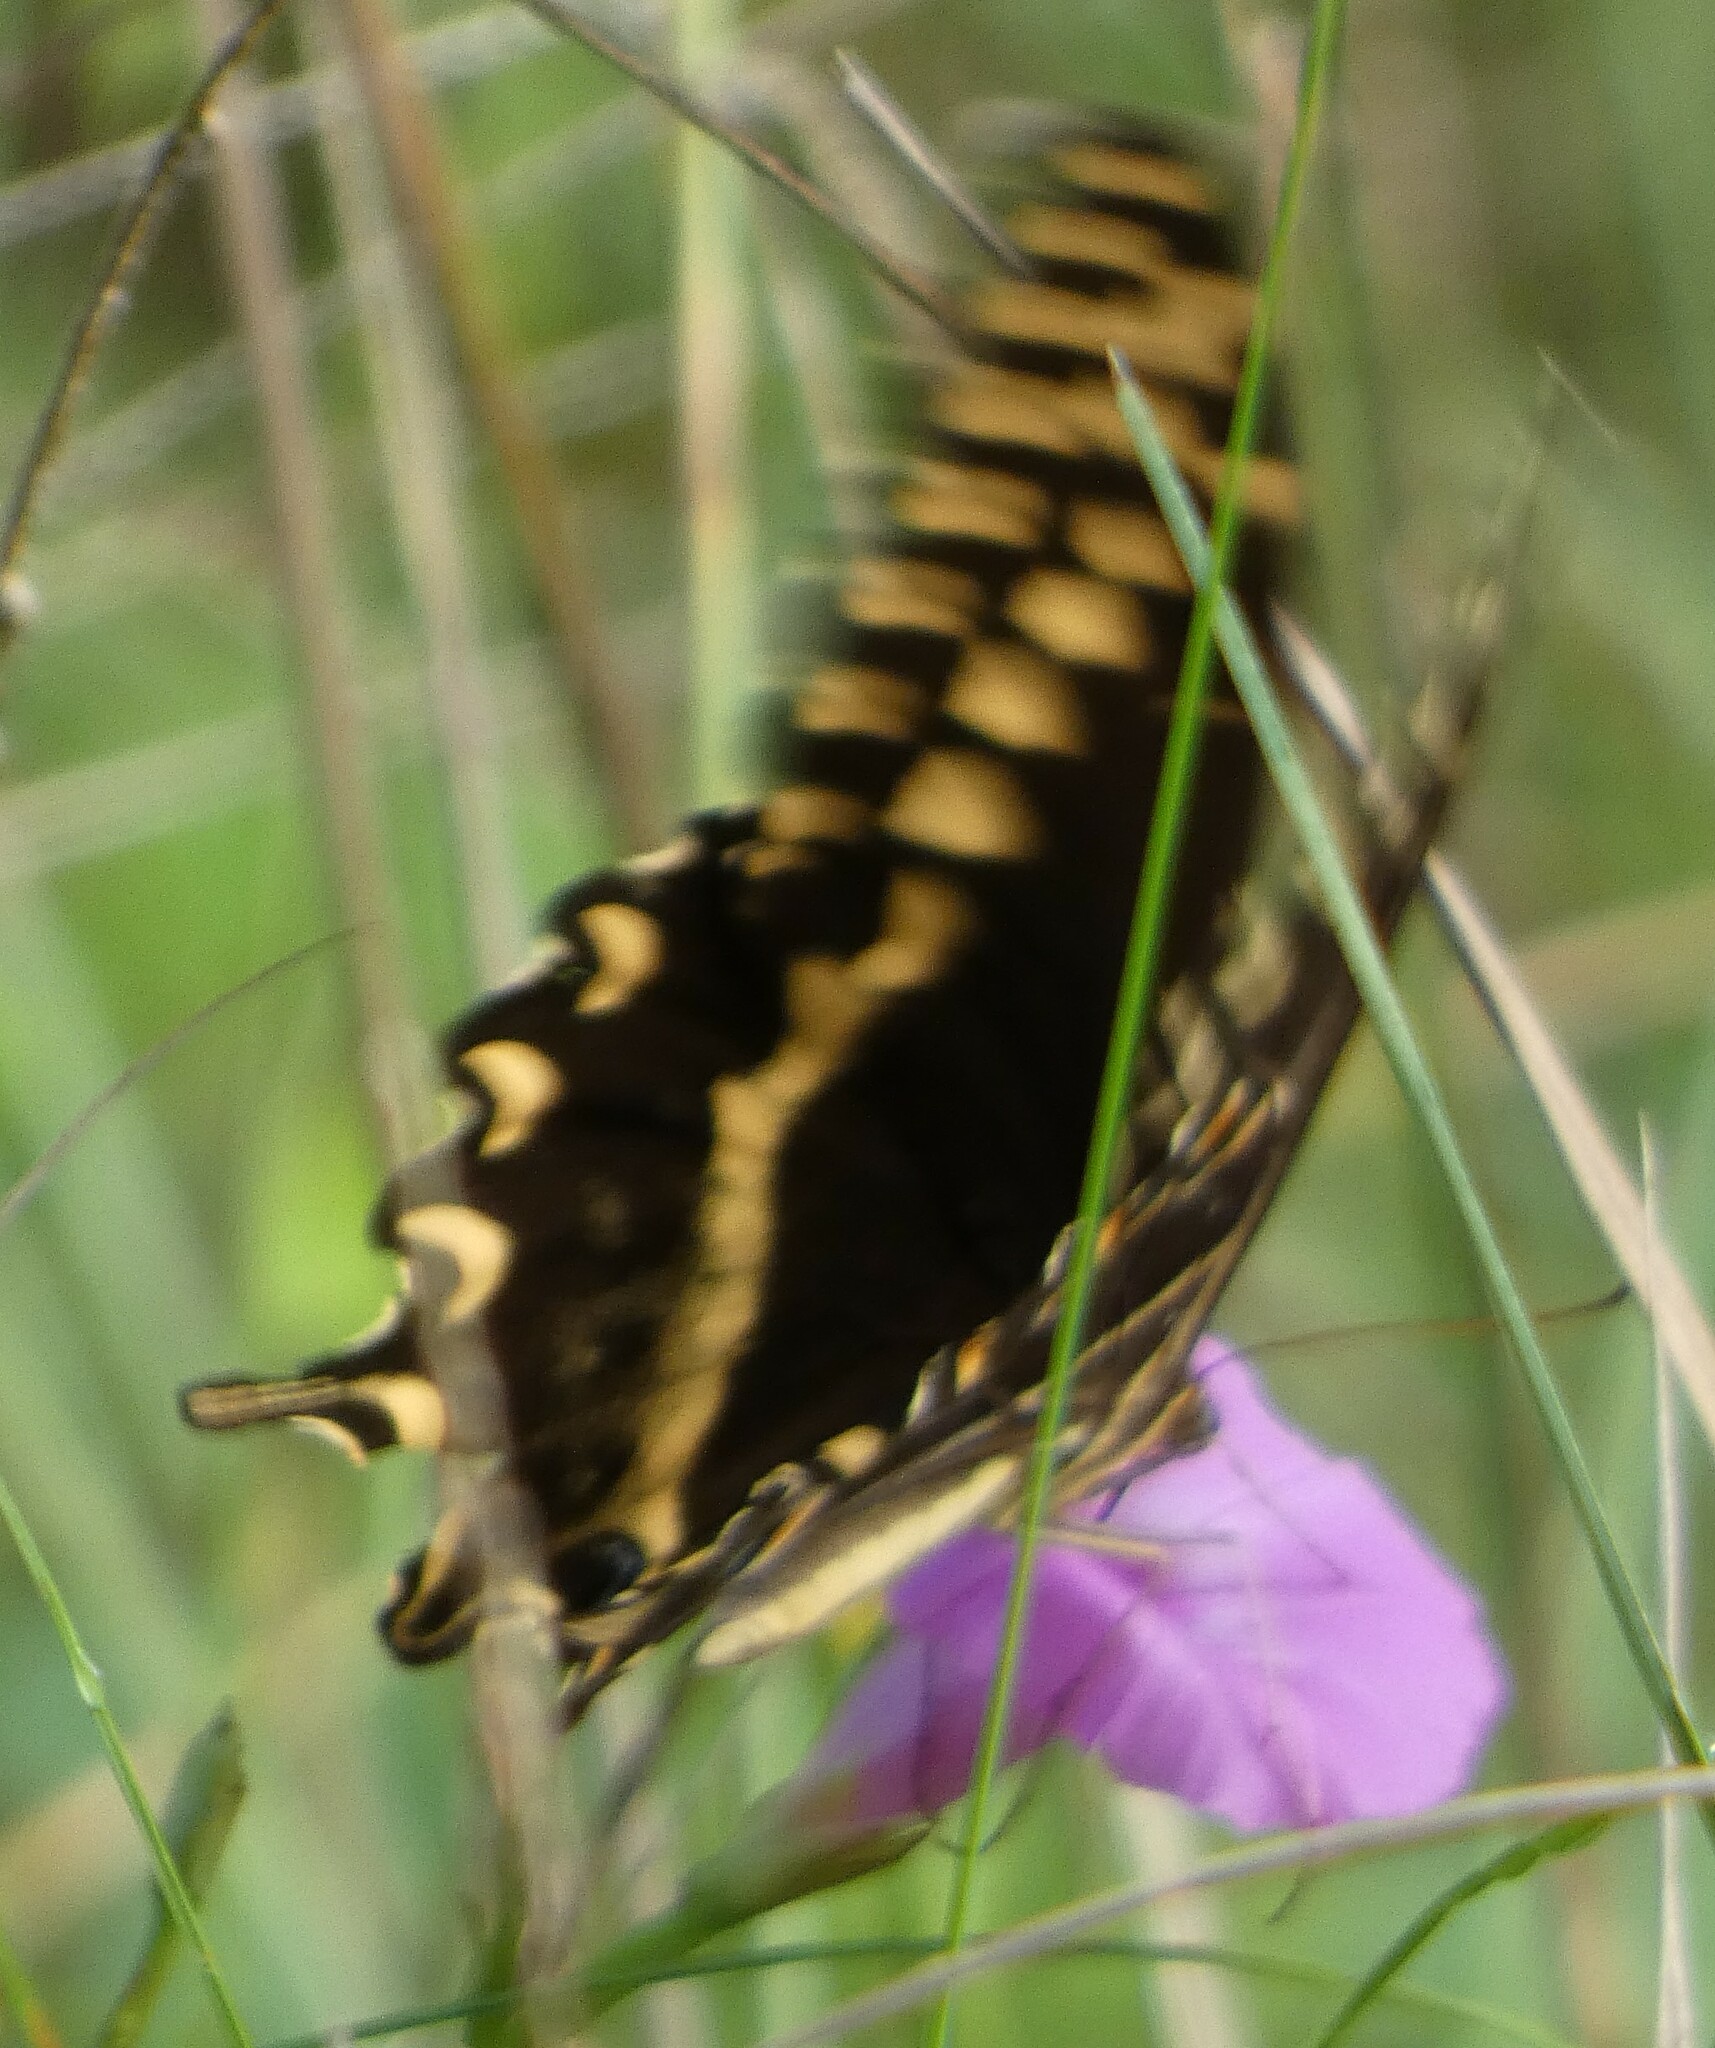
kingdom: Animalia
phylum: Arthropoda
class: Insecta
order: Lepidoptera
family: Papilionidae
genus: Papilio
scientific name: Papilio palamedes
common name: Palamedes swallowtail
